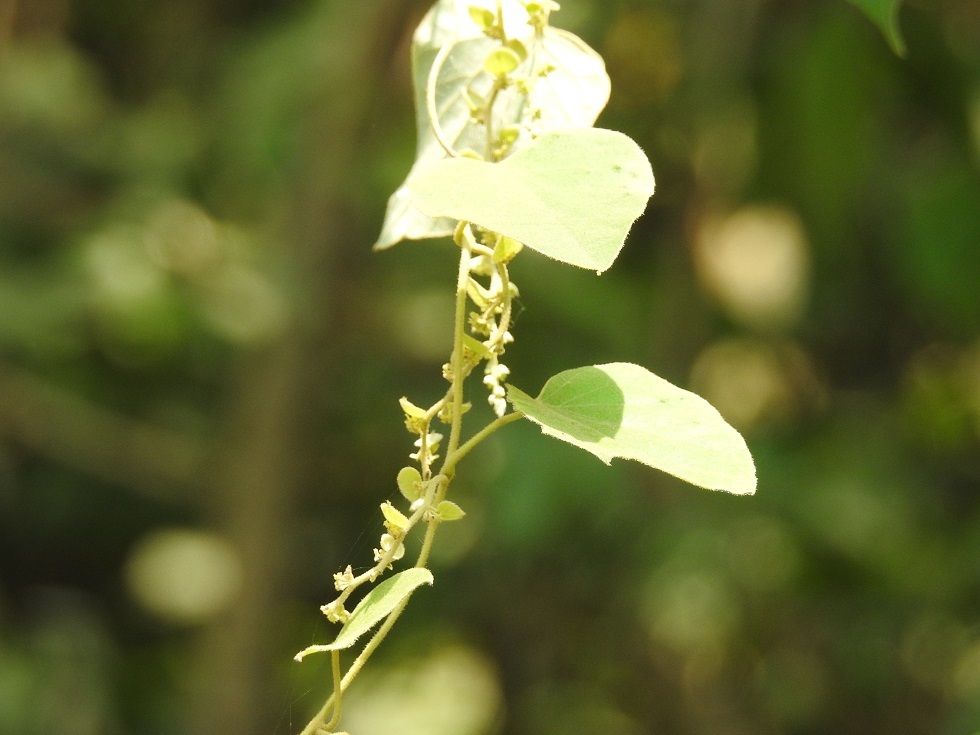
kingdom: Plantae
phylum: Tracheophyta
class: Magnoliopsida
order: Ranunculales
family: Menispermaceae
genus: Cissampelos
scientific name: Cissampelos pareira
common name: Velvetleaf
